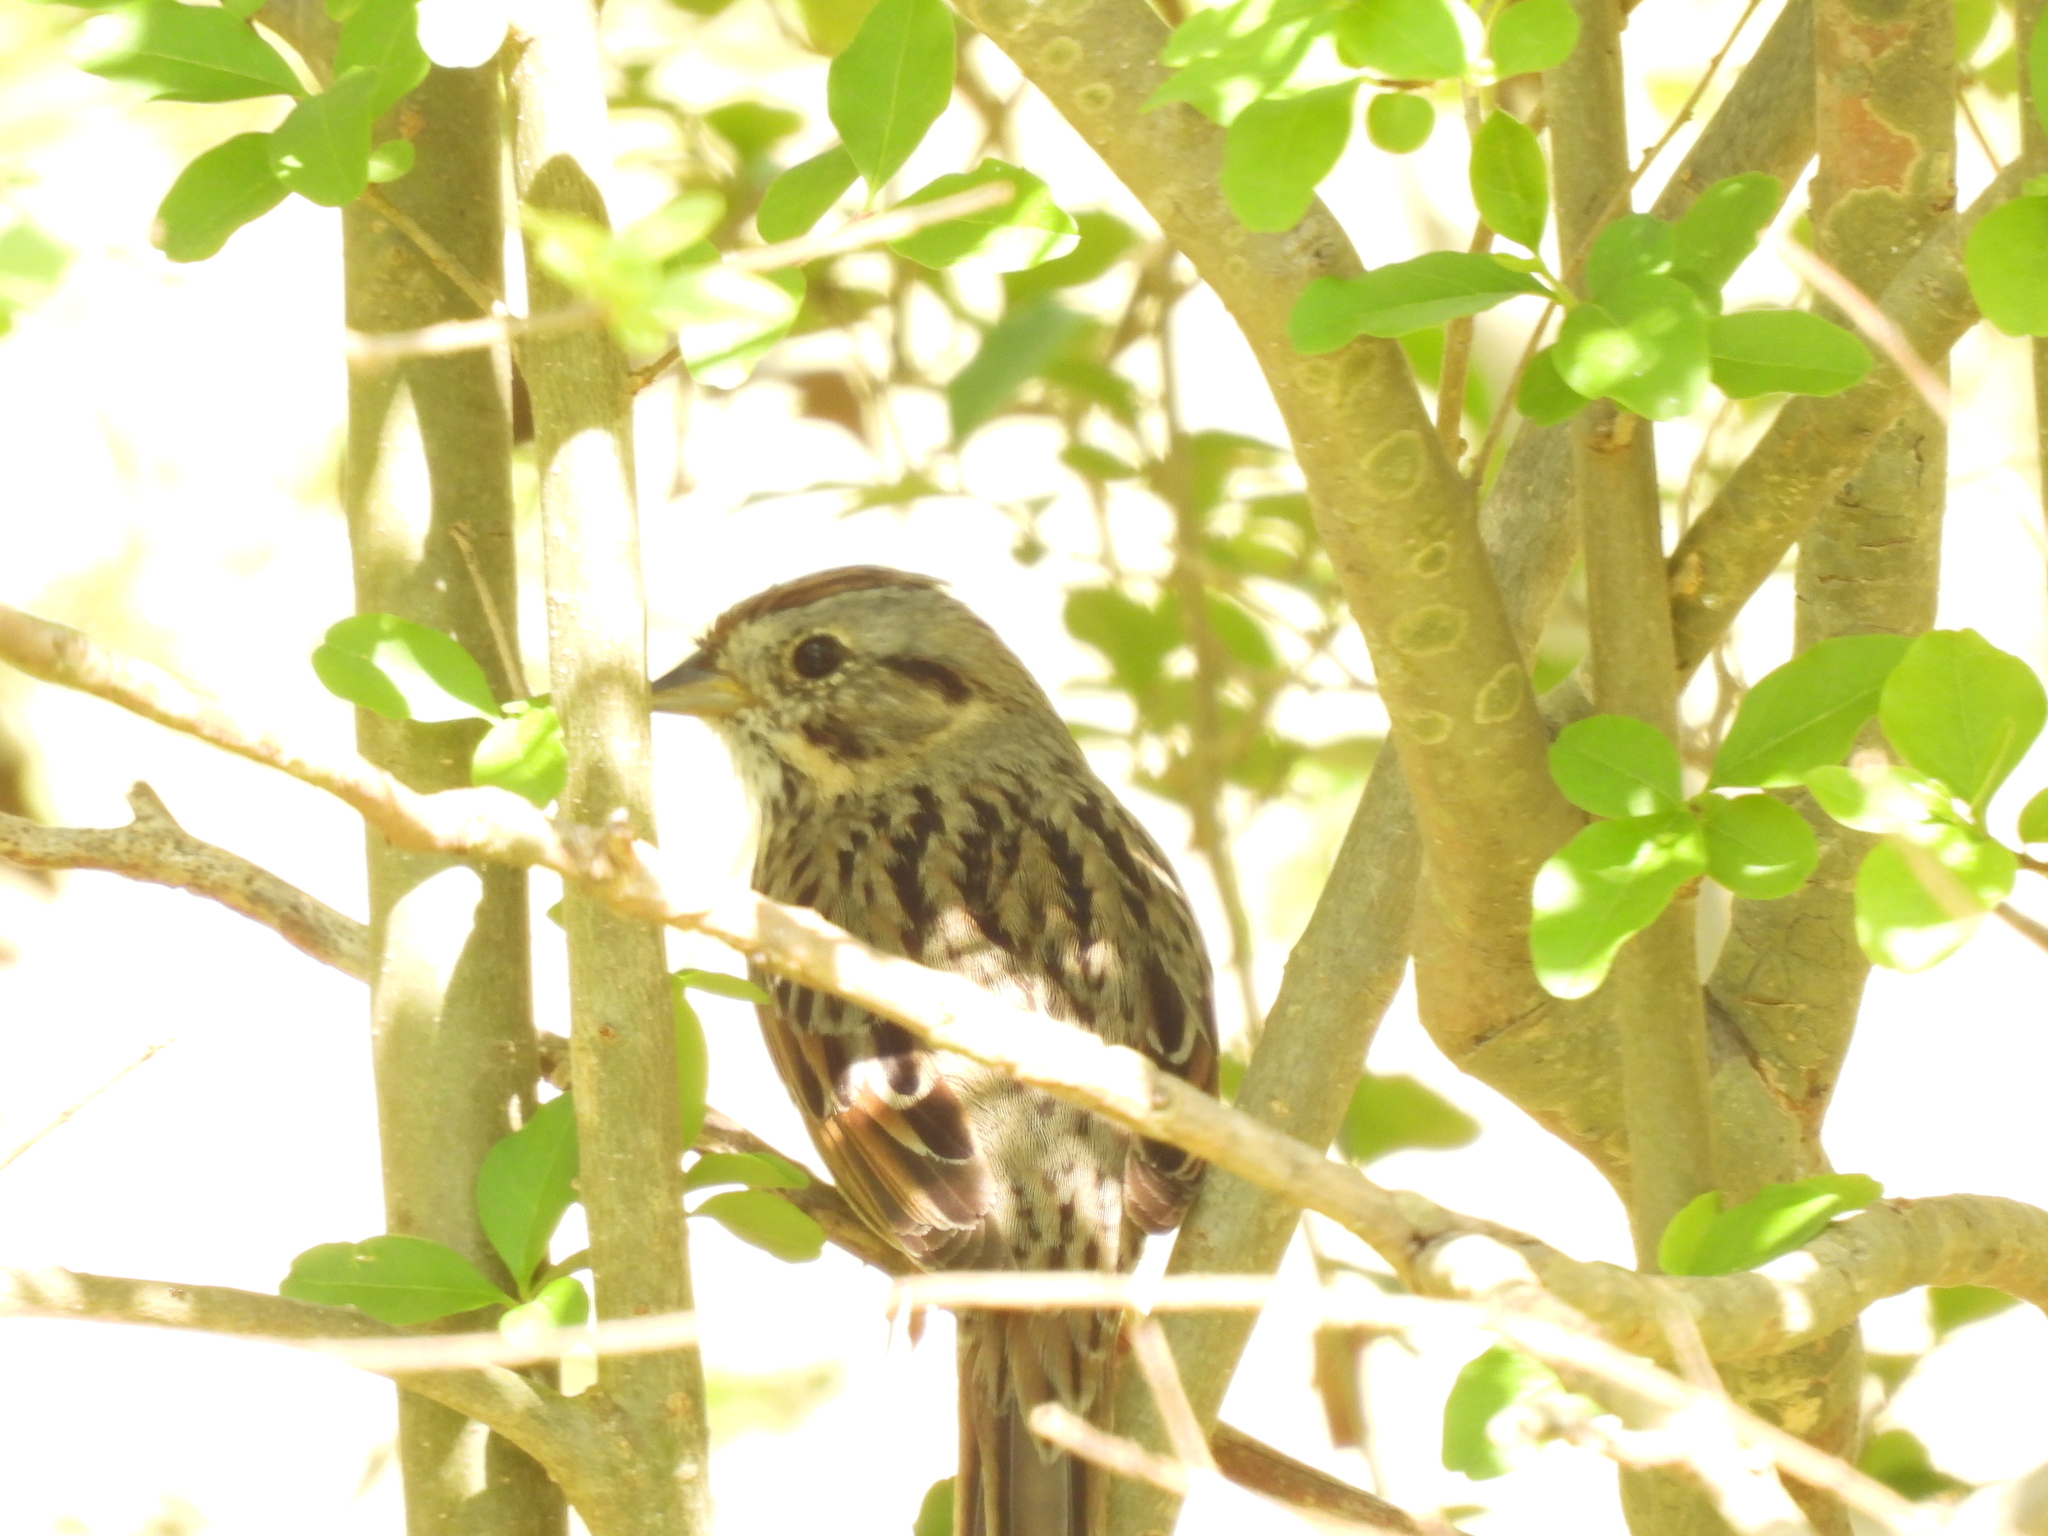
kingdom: Animalia
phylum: Chordata
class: Aves
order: Passeriformes
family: Passerellidae
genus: Melospiza
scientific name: Melospiza lincolnii
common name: Lincoln's sparrow
